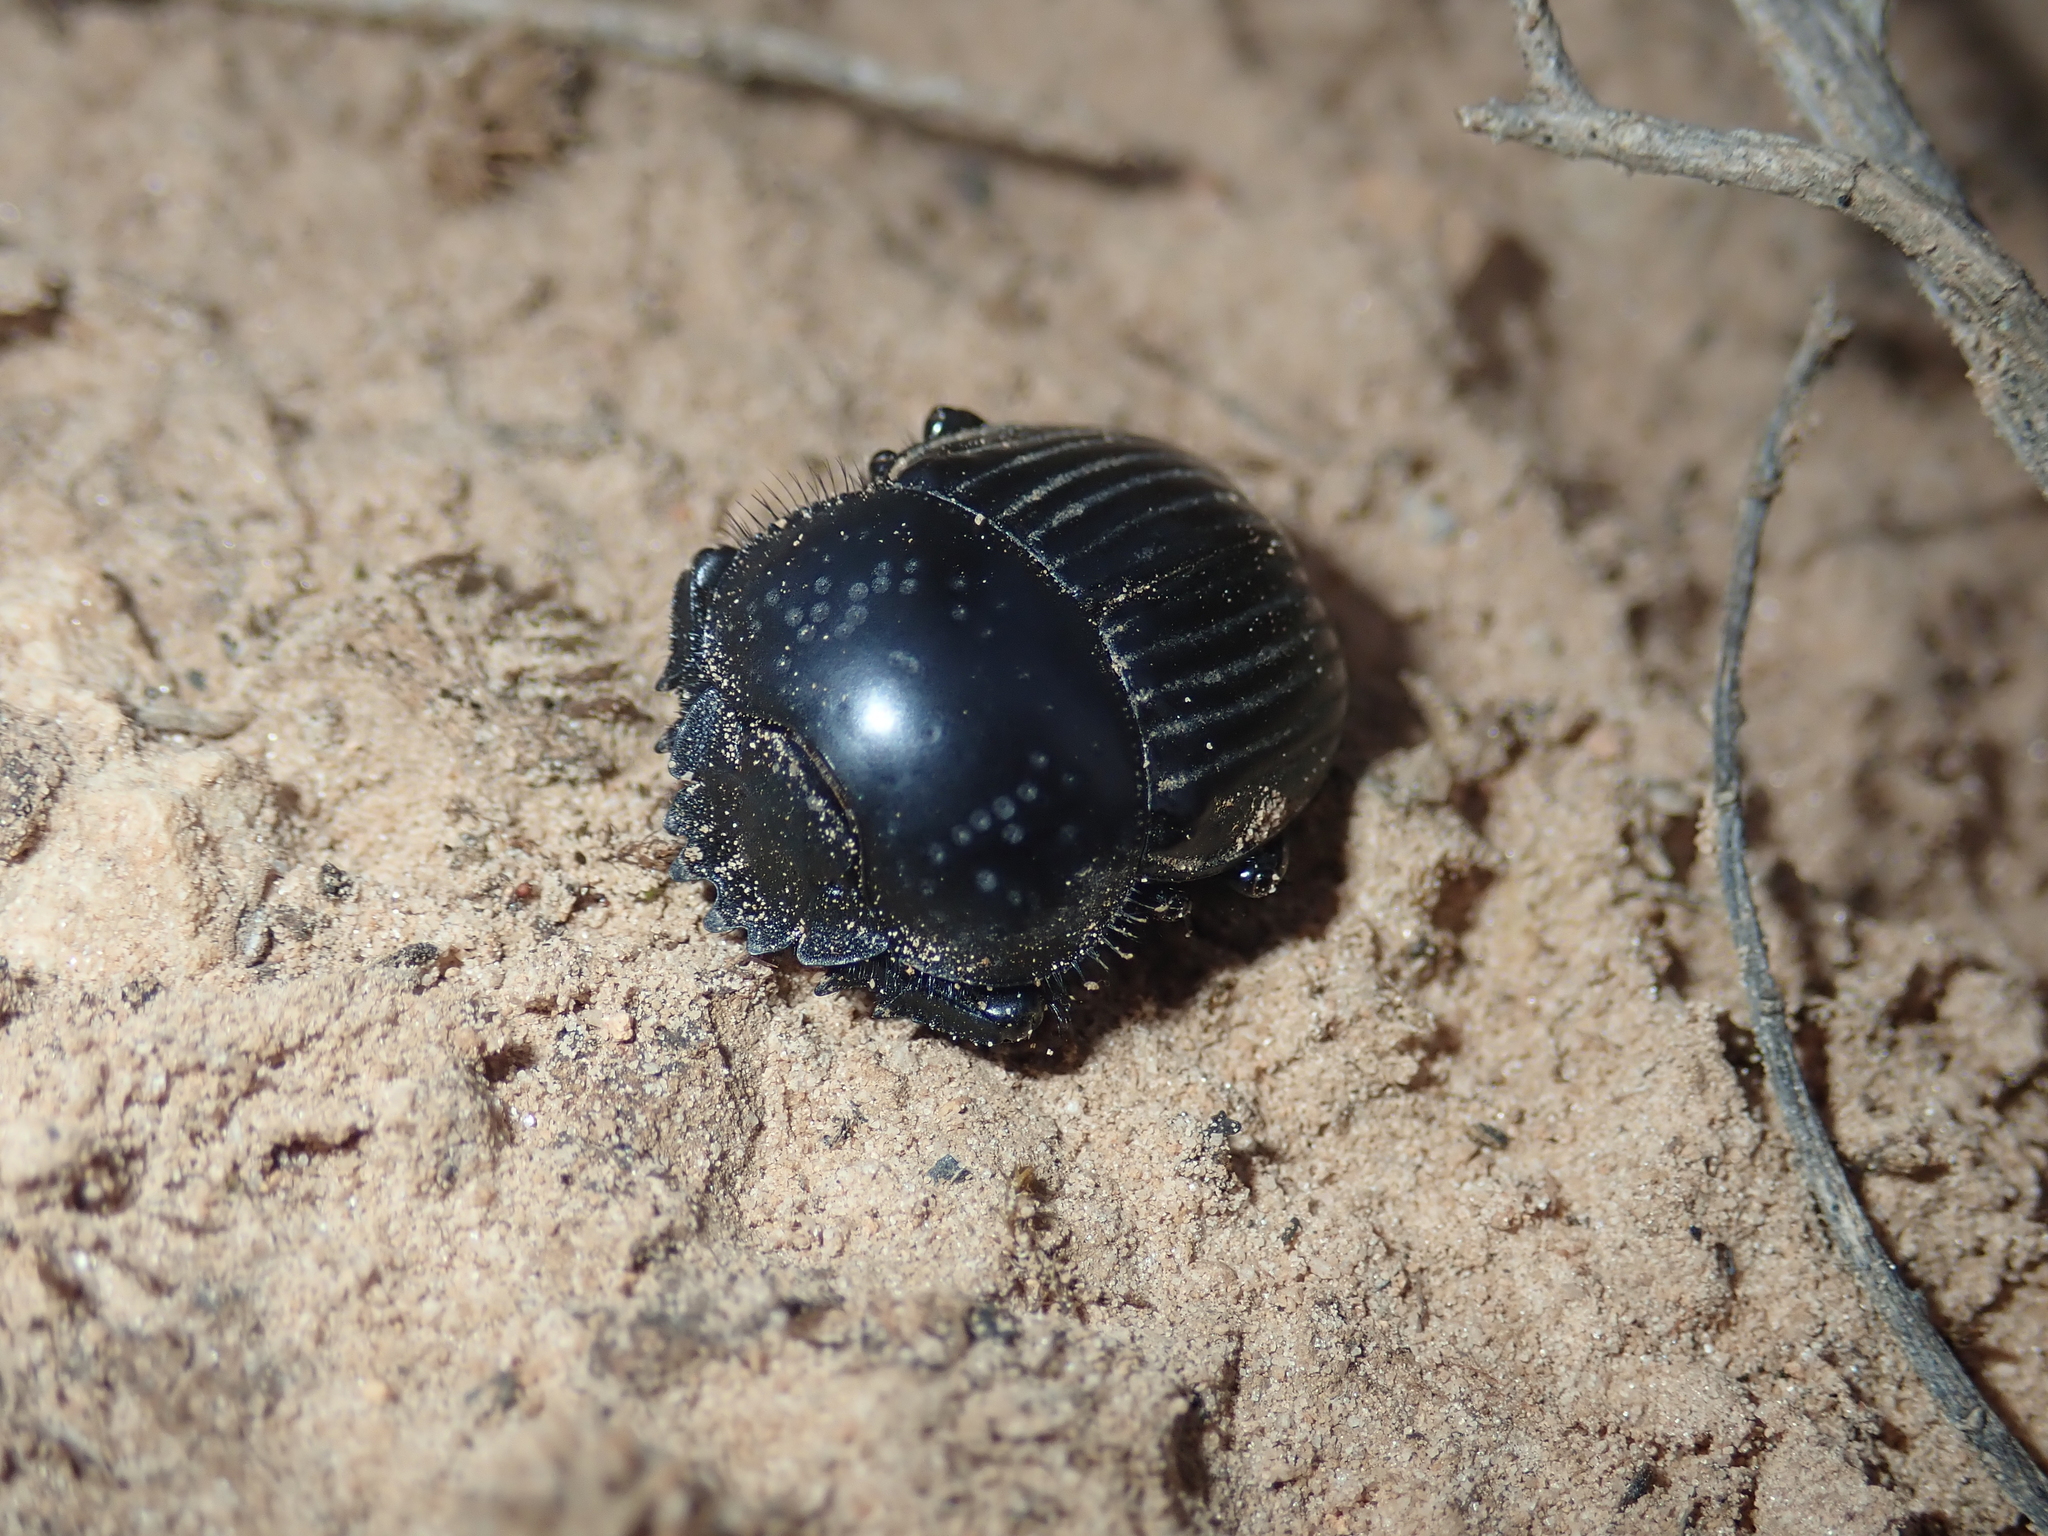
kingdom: Animalia
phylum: Arthropoda
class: Insecta
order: Coleoptera
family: Scarabaeidae
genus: Ateuchetus
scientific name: Ateuchetus laticollis
